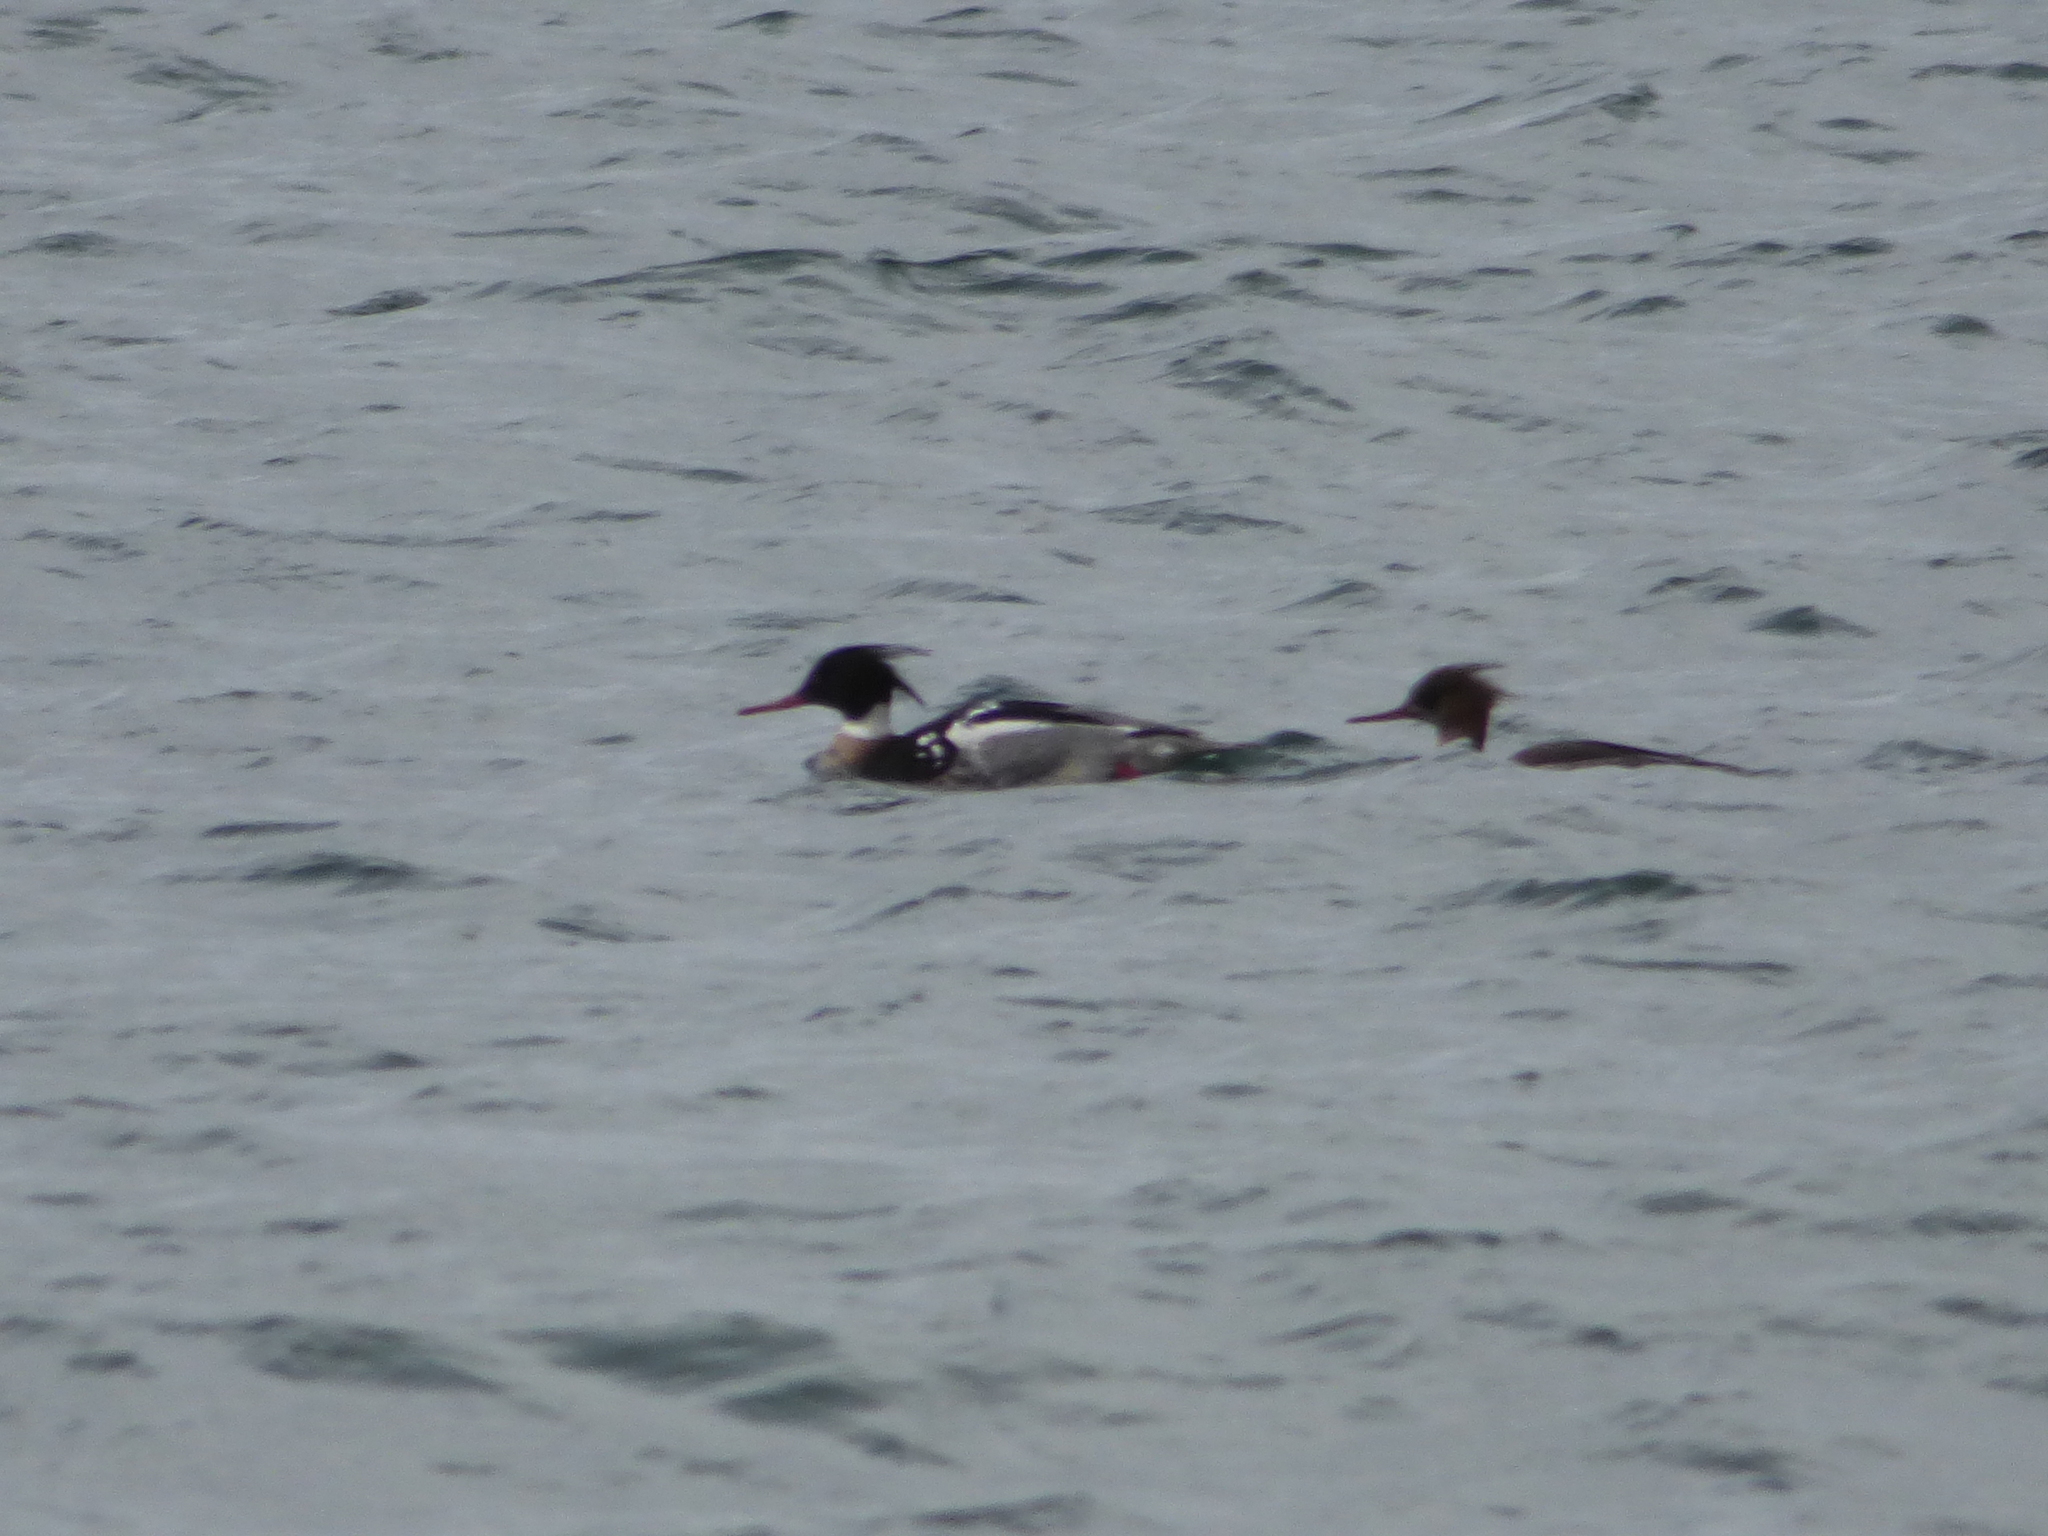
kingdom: Animalia
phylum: Chordata
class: Aves
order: Anseriformes
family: Anatidae
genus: Mergus
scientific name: Mergus serrator
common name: Red-breasted merganser
